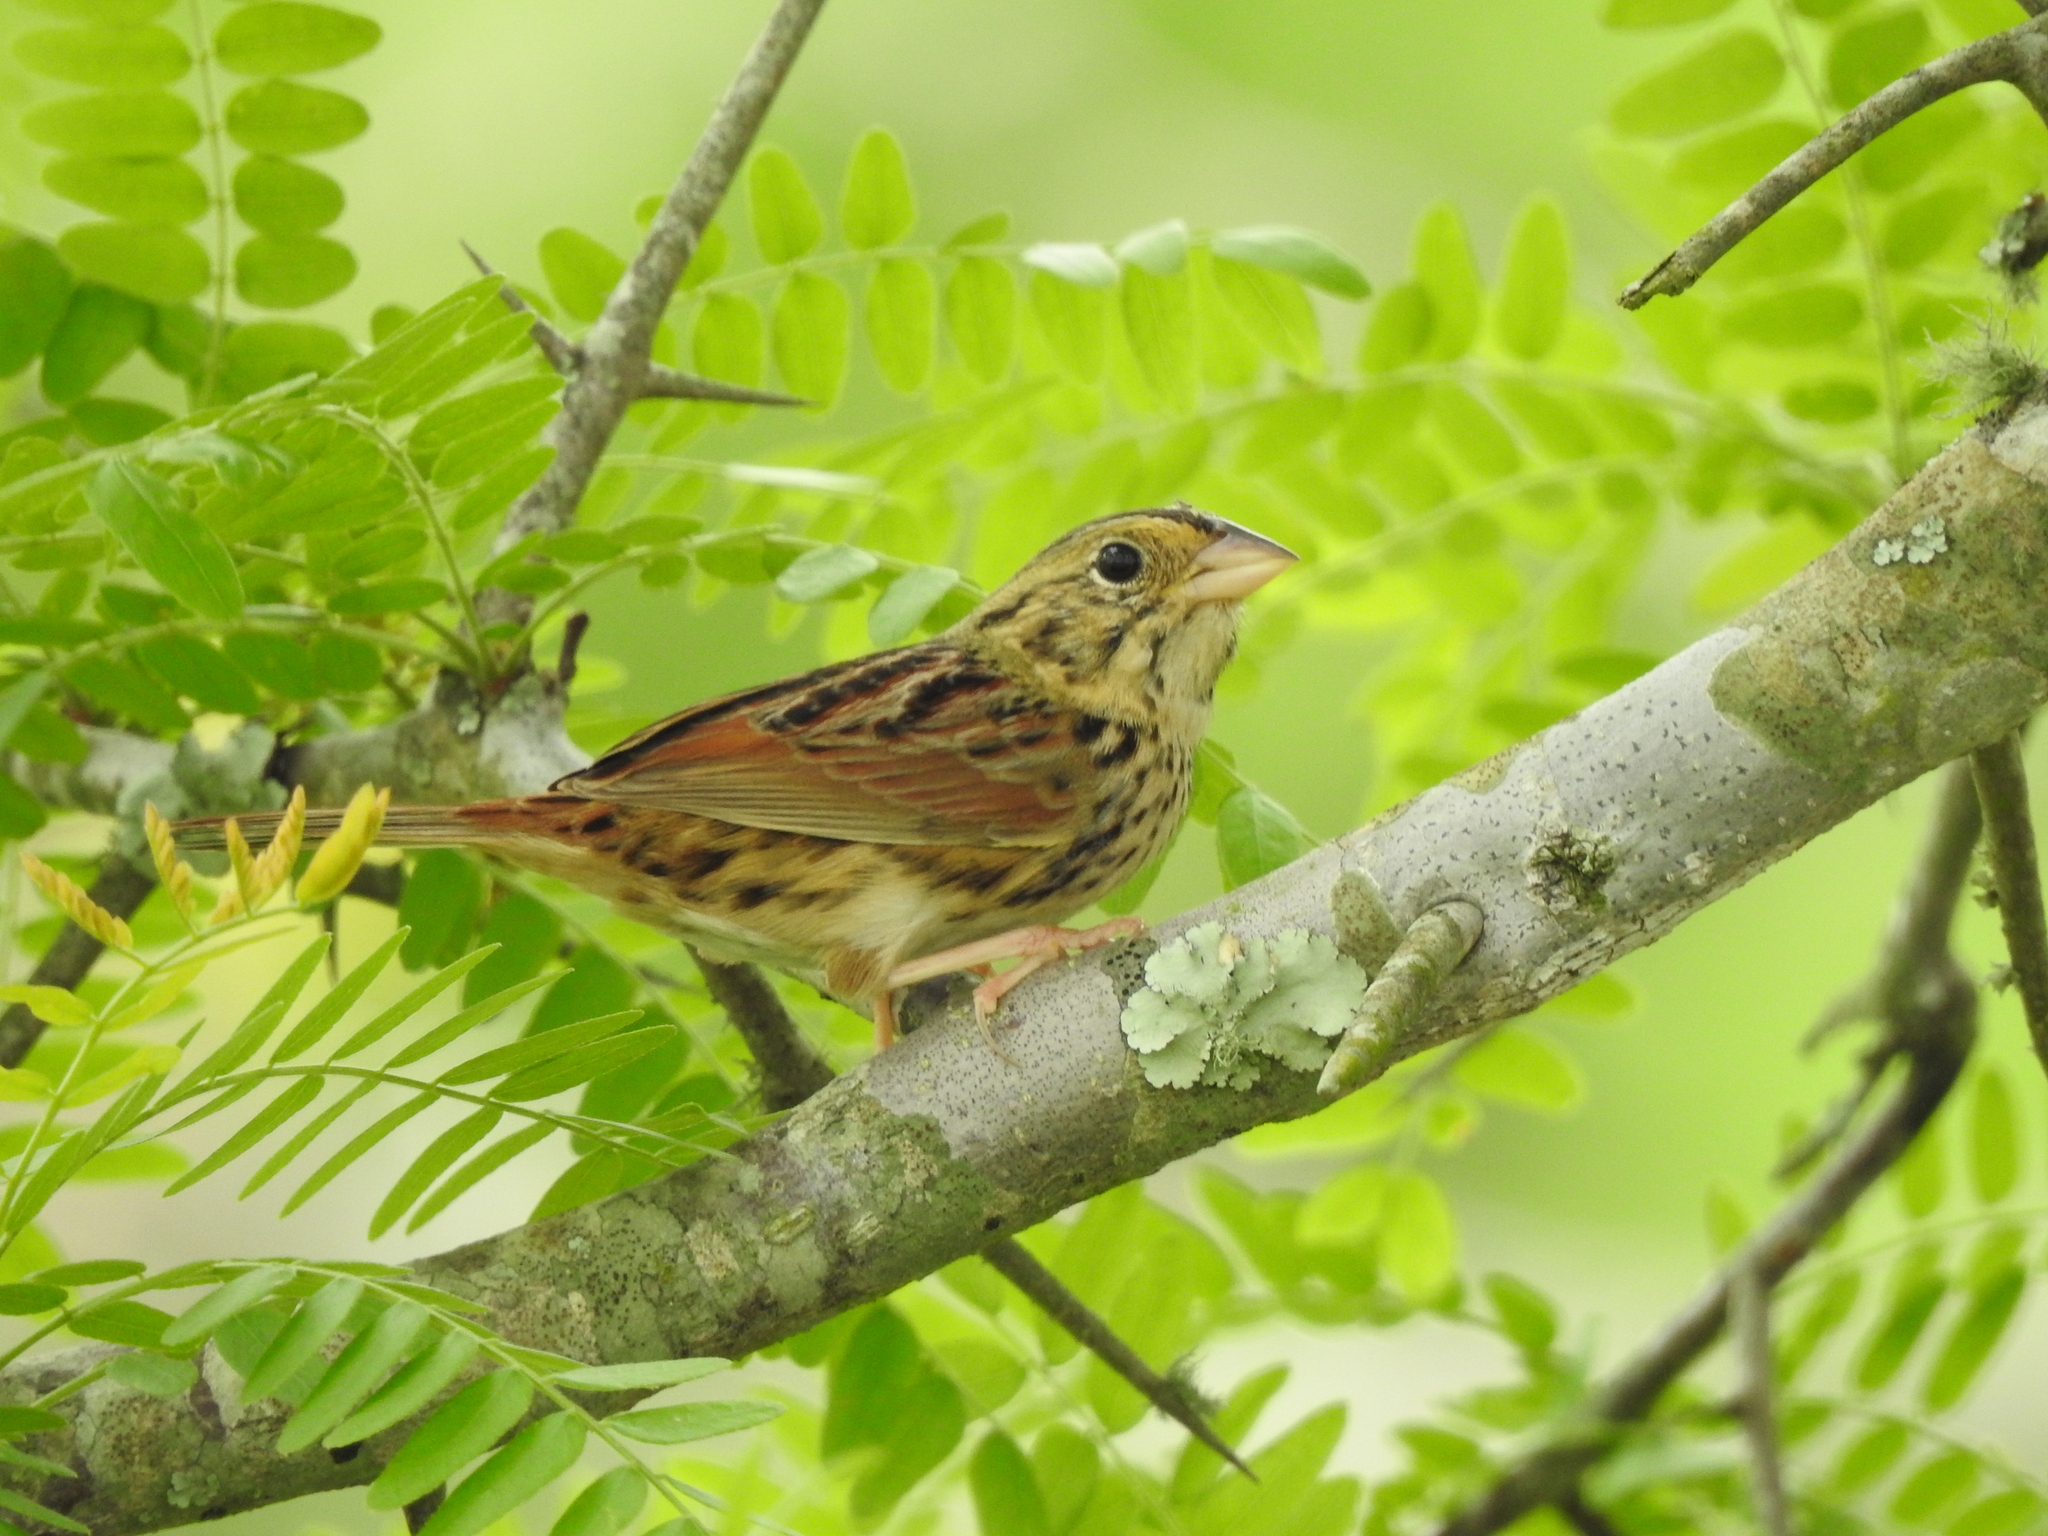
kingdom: Animalia
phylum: Chordata
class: Aves
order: Passeriformes
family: Passerellidae
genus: Centronyx
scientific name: Centronyx henslowii
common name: Henslow's sparrow
